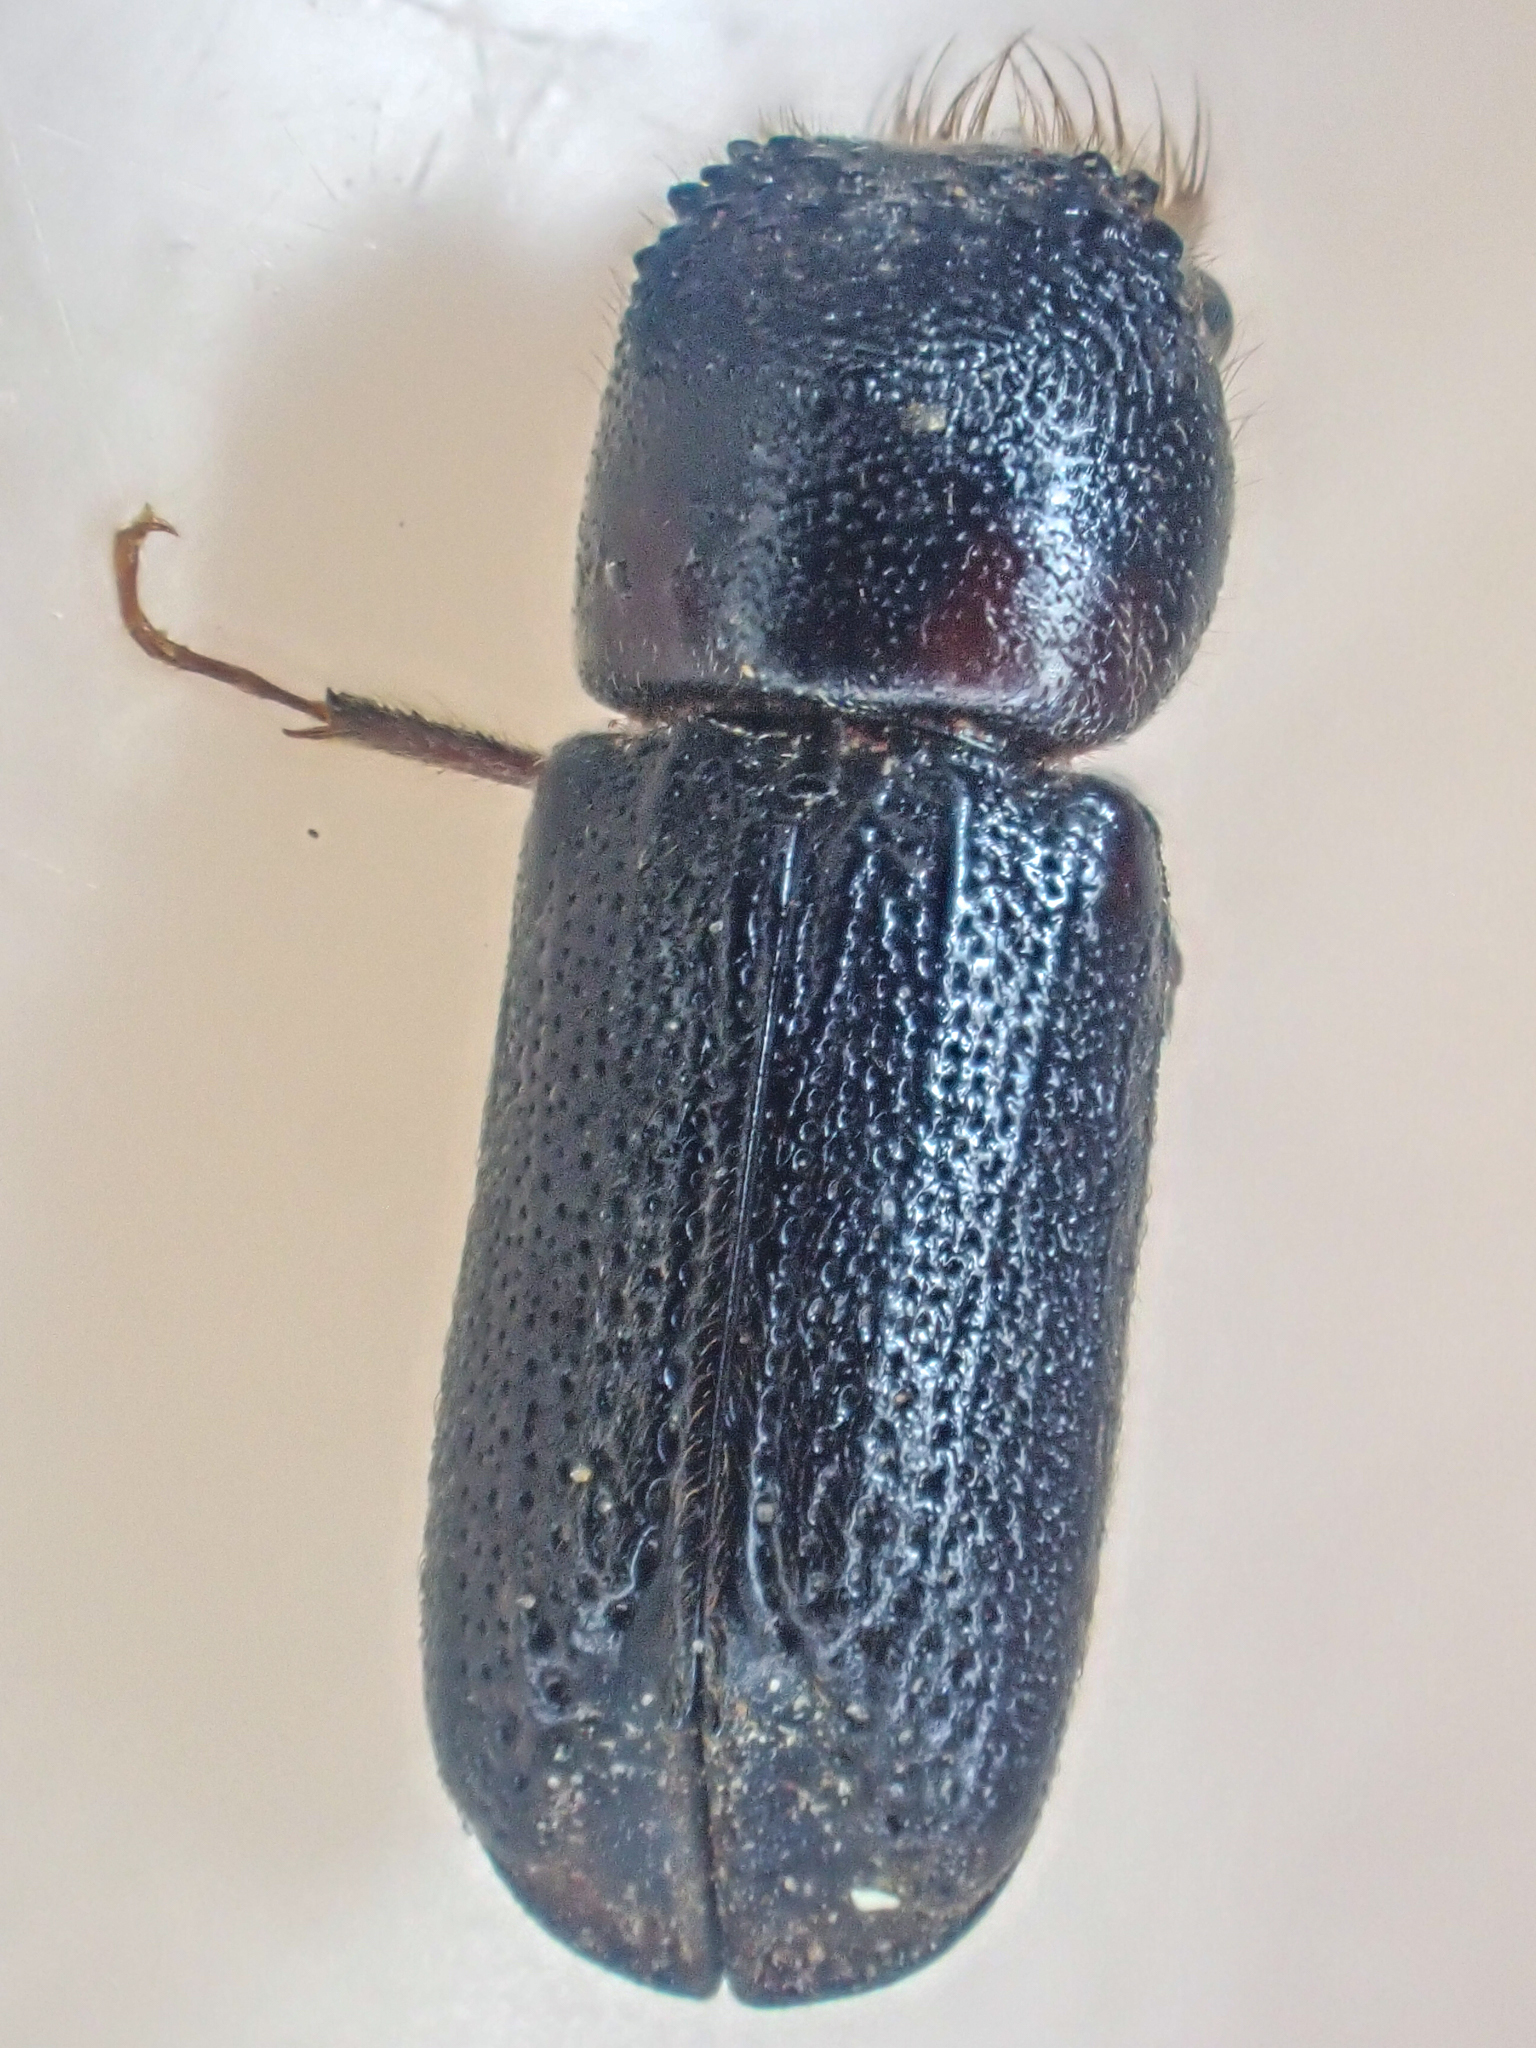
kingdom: Animalia
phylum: Arthropoda
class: Insecta
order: Coleoptera
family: Bostrichidae
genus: Scobicia
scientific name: Scobicia declivis
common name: Powderpost beetle
